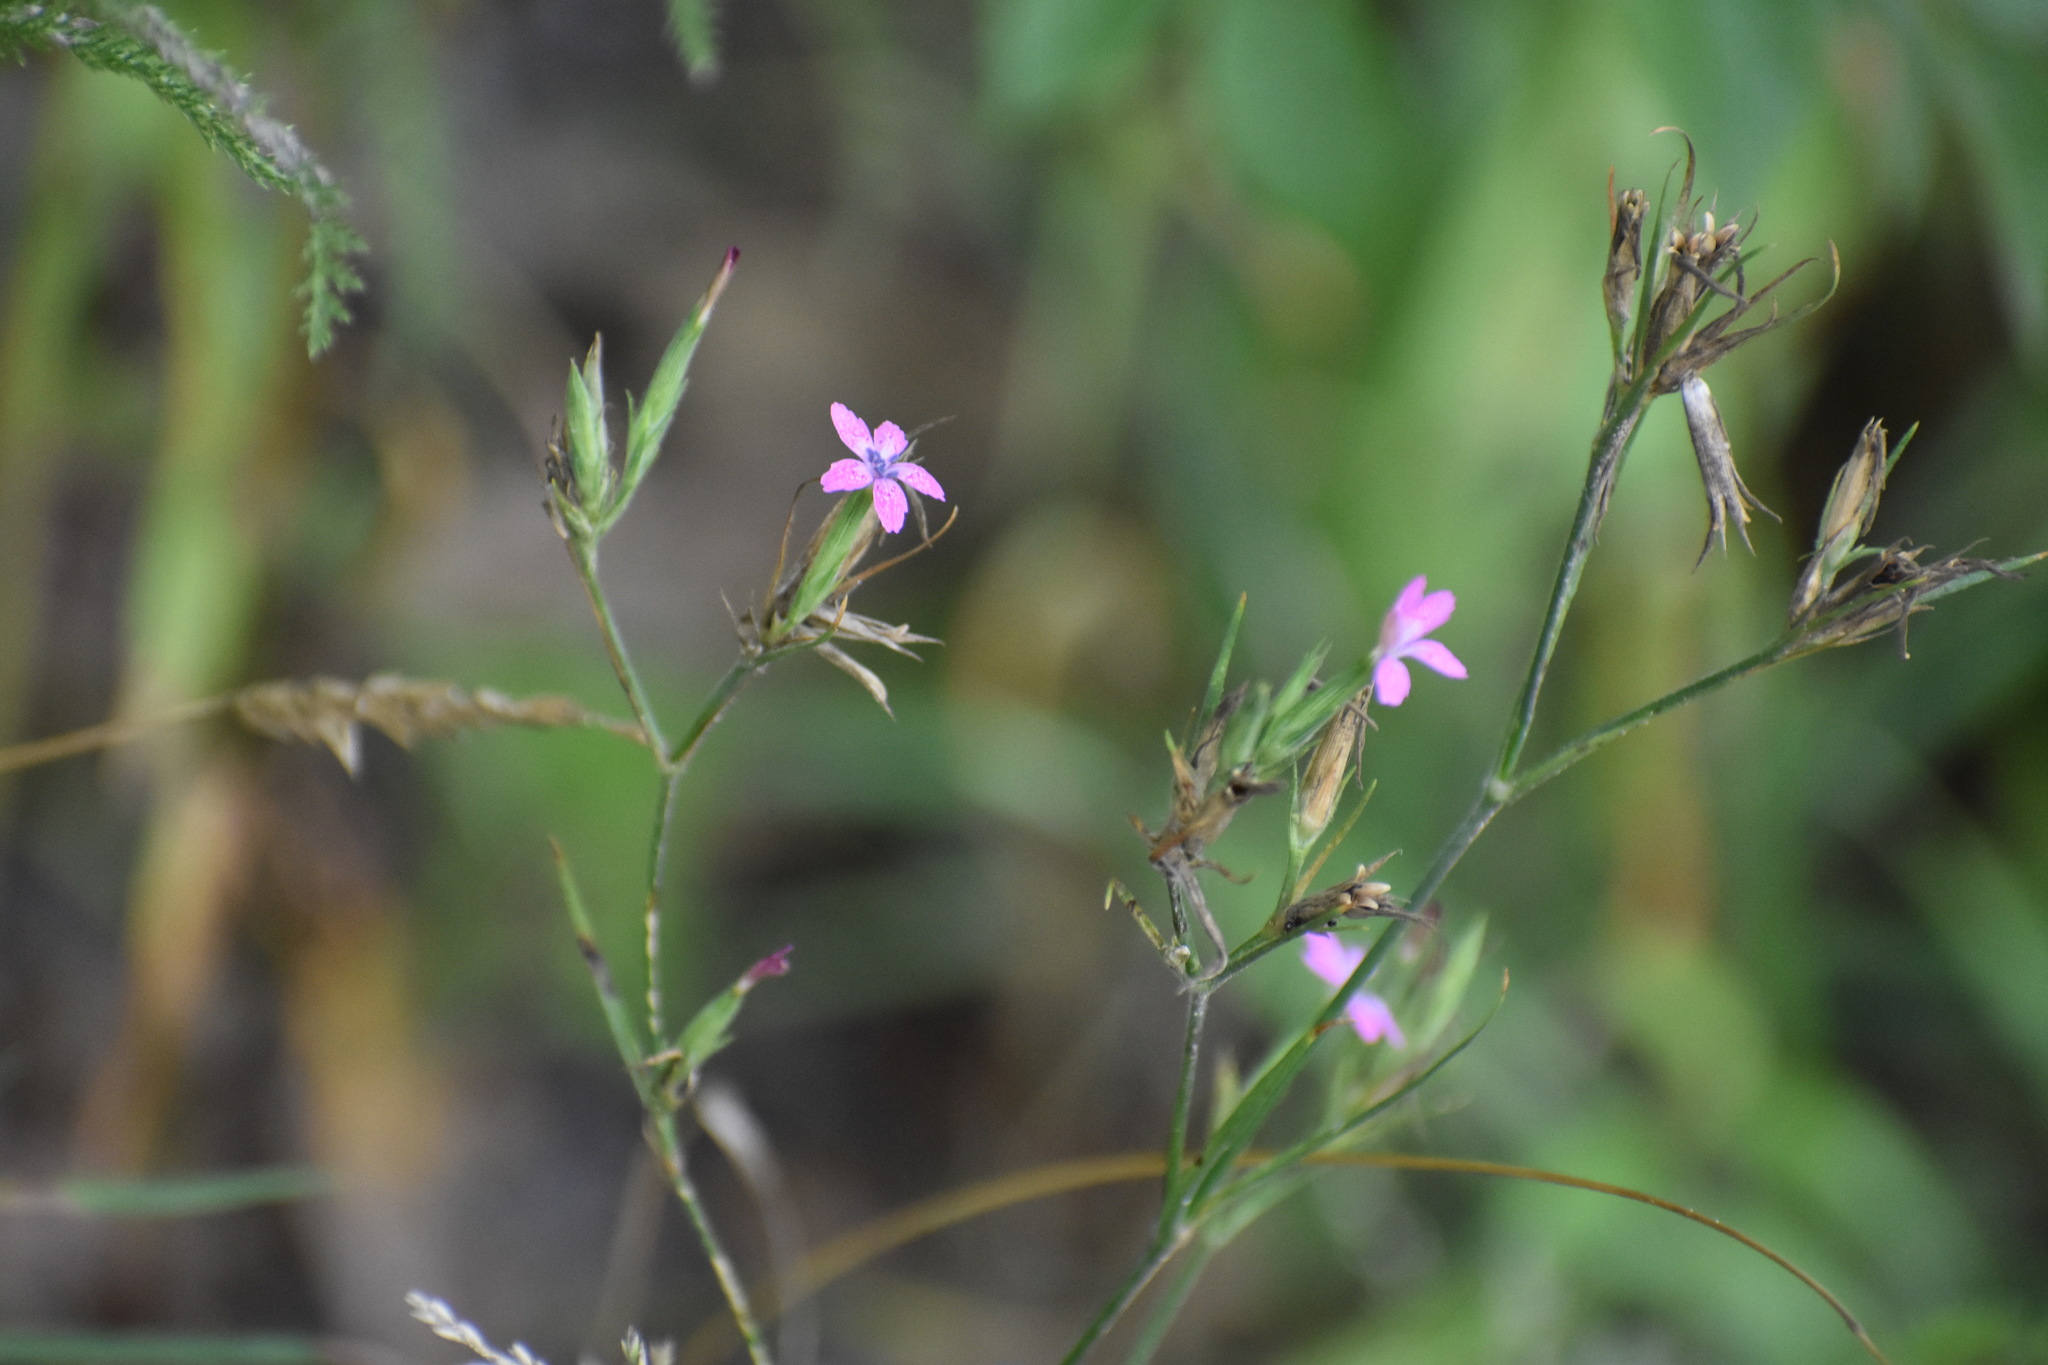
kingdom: Plantae
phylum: Tracheophyta
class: Magnoliopsida
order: Caryophyllales
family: Caryophyllaceae
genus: Dianthus
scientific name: Dianthus armeria
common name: Deptford pink
